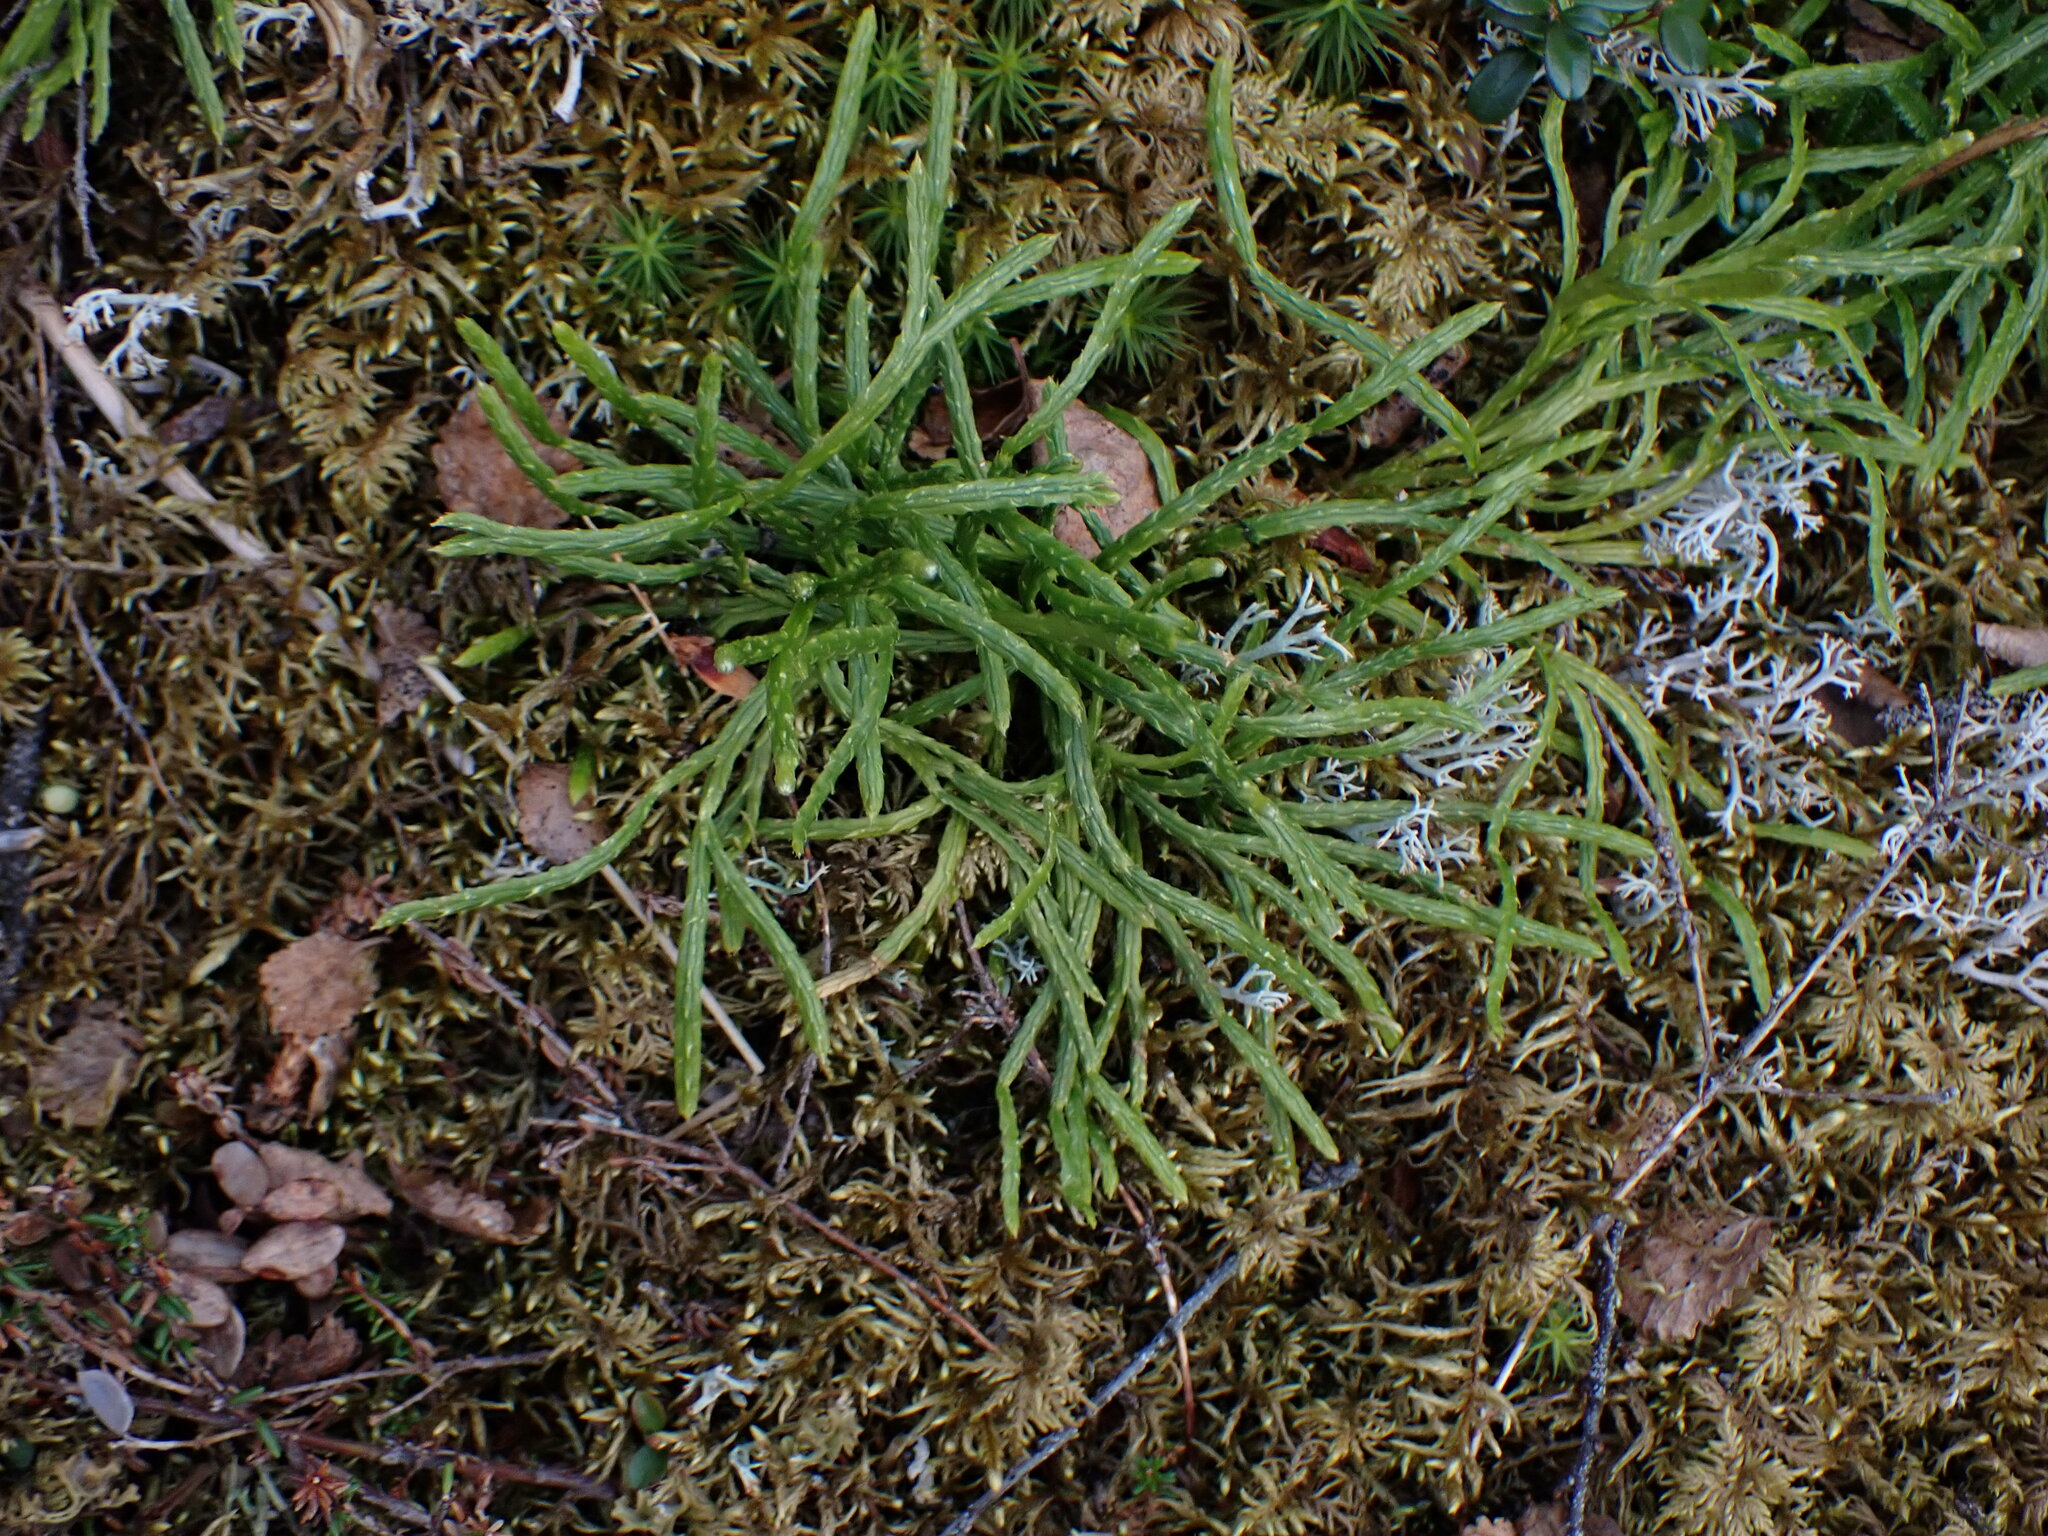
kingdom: Plantae
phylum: Tracheophyta
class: Lycopodiopsida
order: Lycopodiales
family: Lycopodiaceae
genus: Diphasiastrum
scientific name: Diphasiastrum complanatum
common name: Northern running-pine
